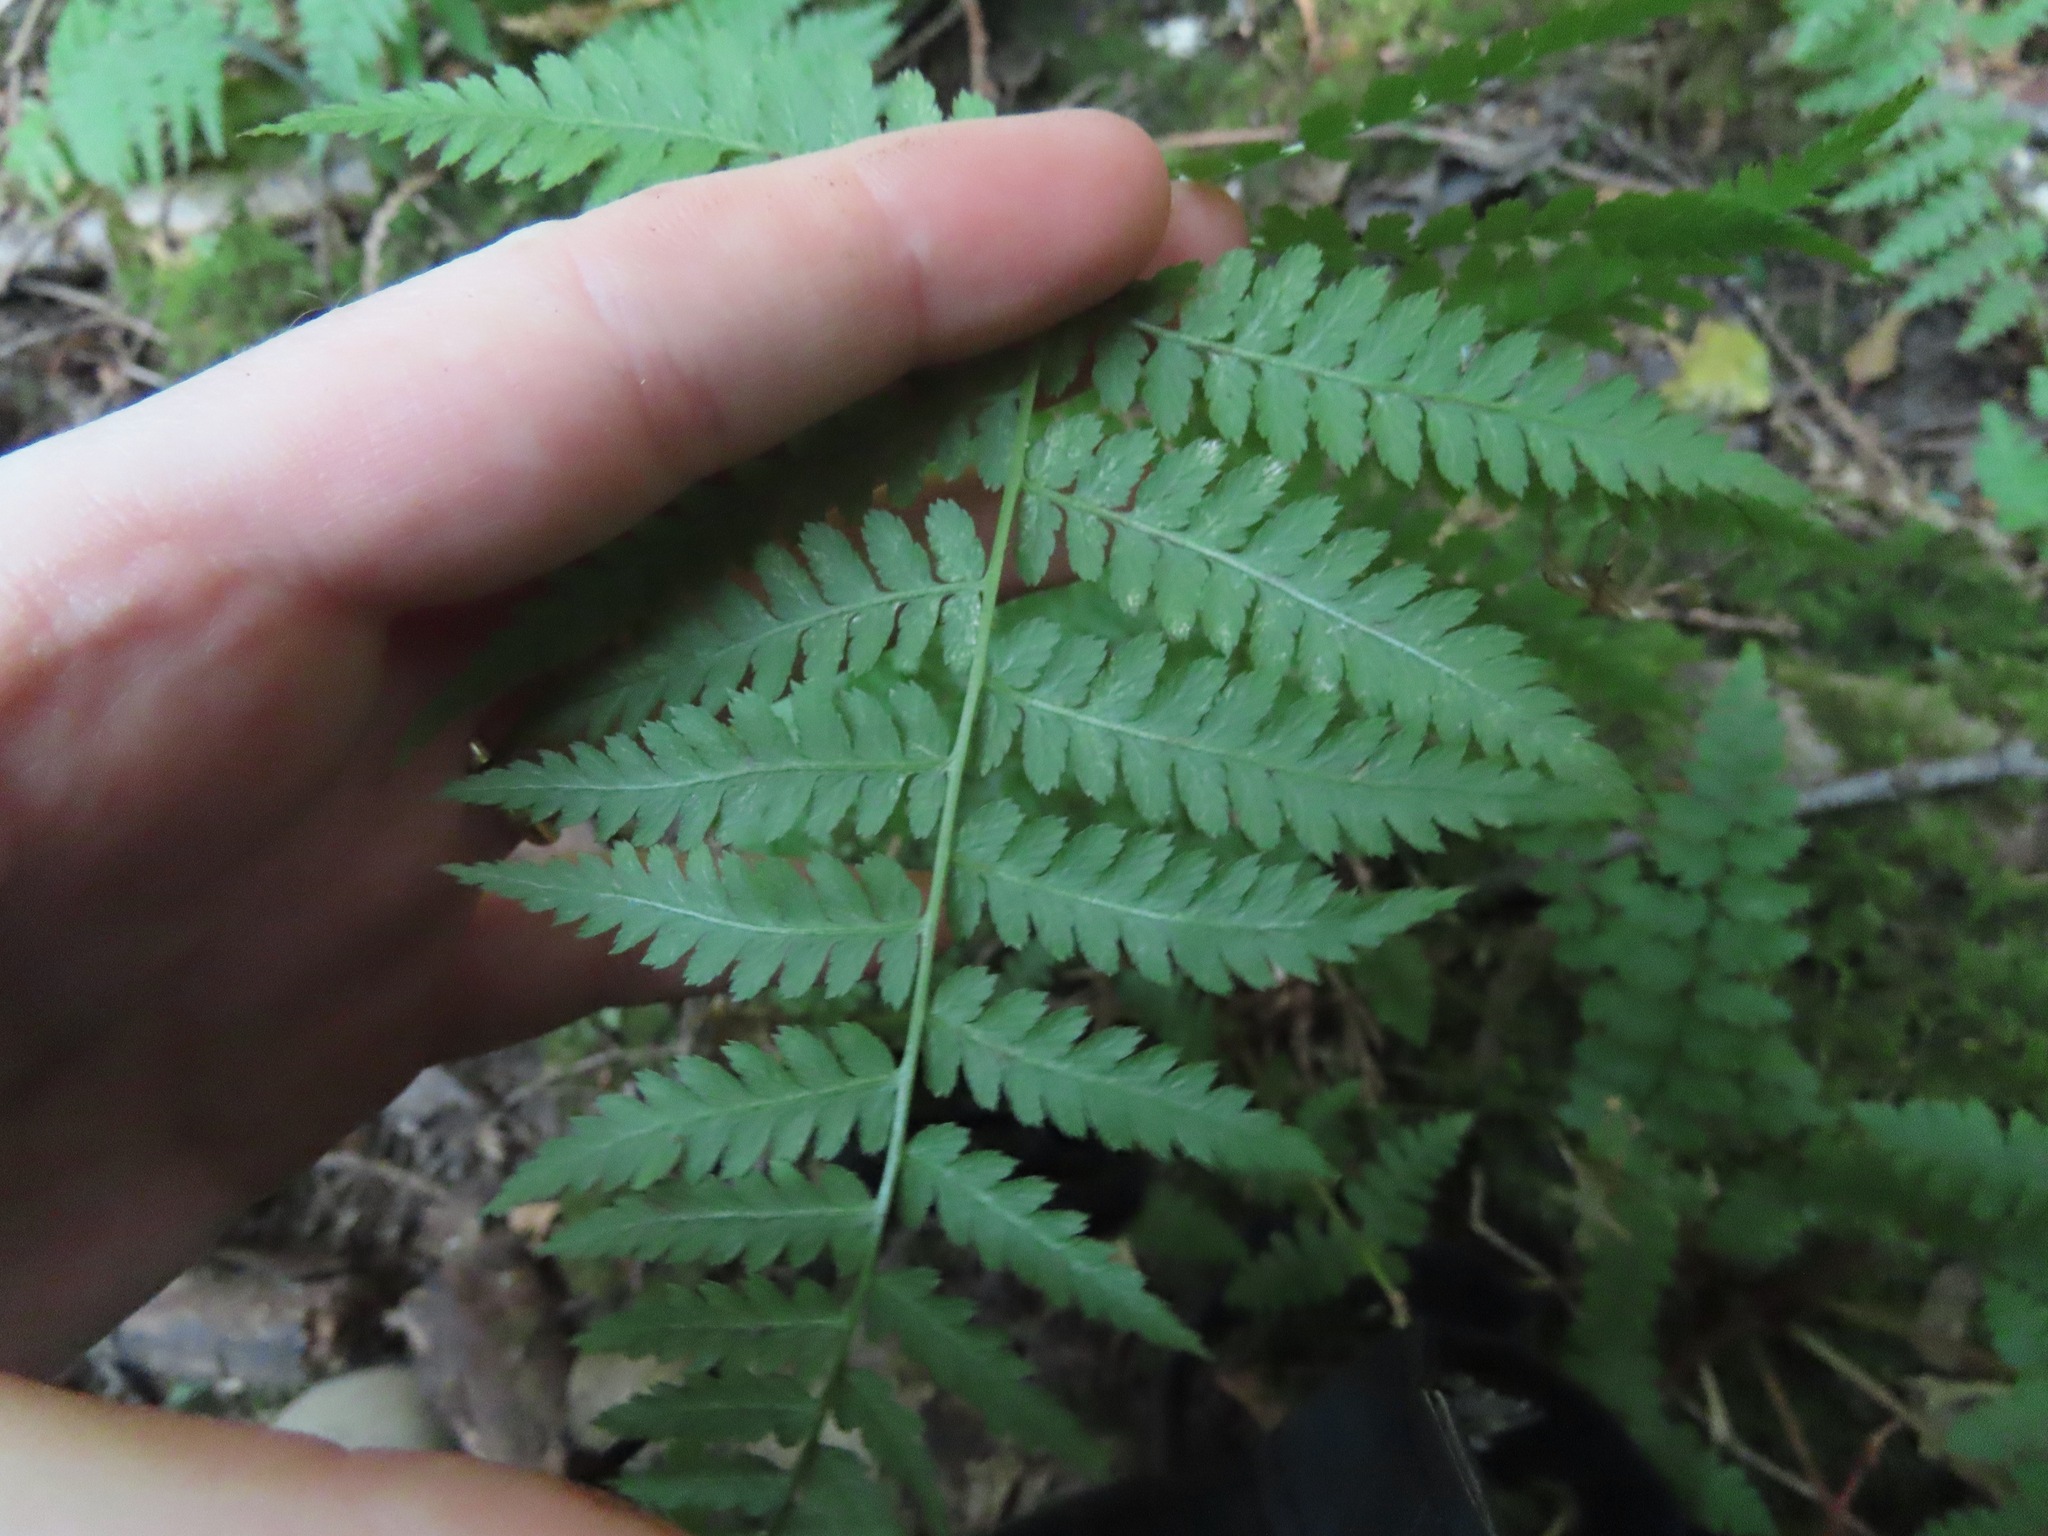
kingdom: Plantae
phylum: Tracheophyta
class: Polypodiopsida
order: Polypodiales
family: Athyriaceae
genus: Athyrium
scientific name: Athyrium filix-femina
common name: Lady fern
